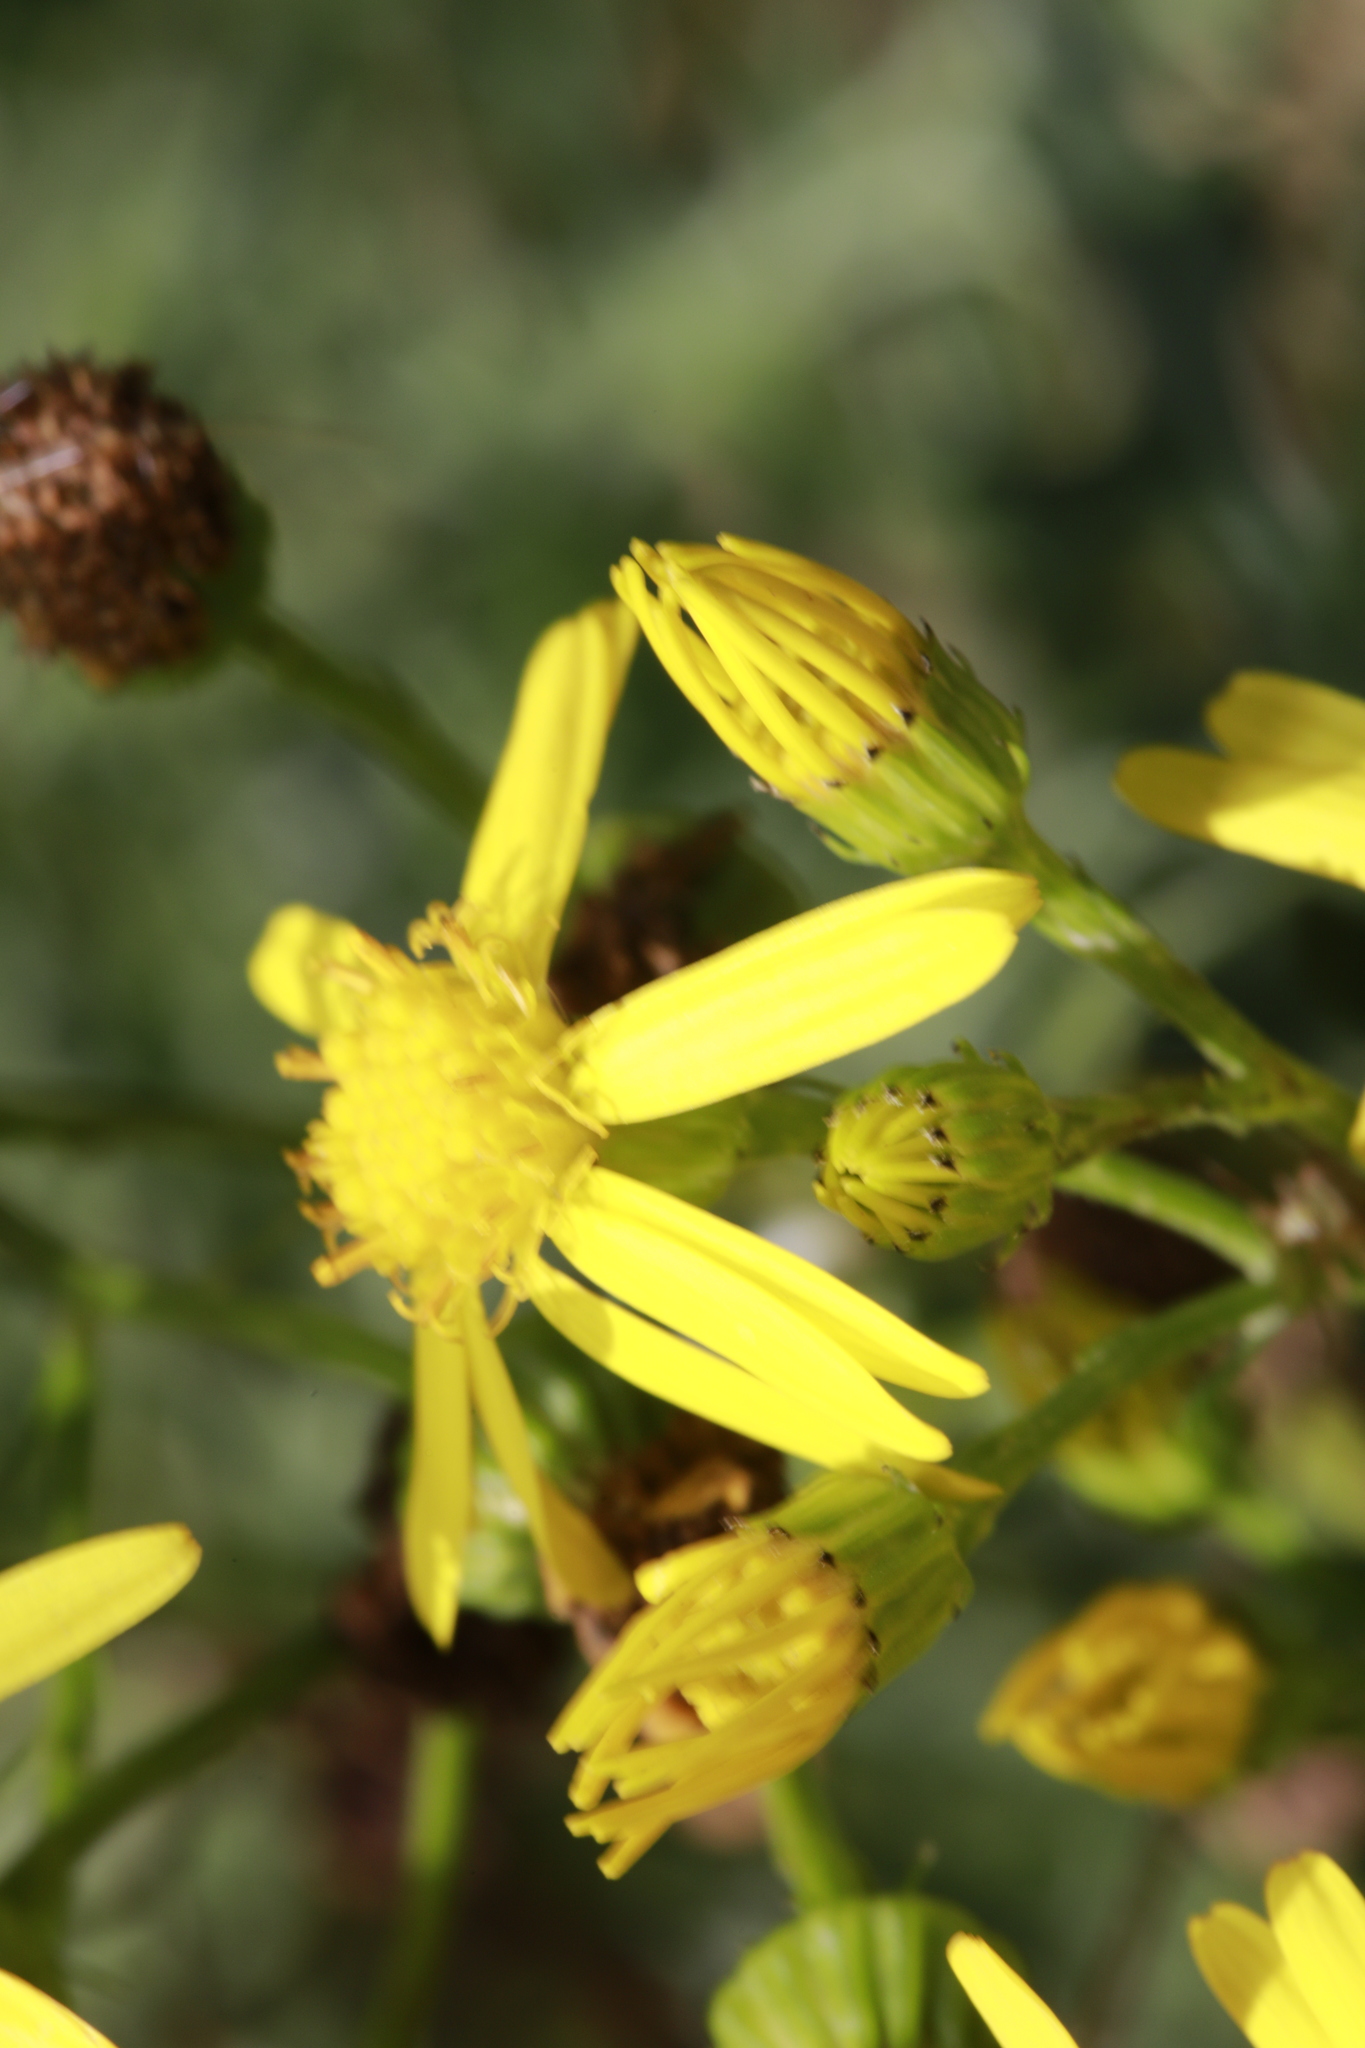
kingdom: Plantae
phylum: Tracheophyta
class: Magnoliopsida
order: Asterales
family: Asteraceae
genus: Jacobaea
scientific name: Jacobaea vulgaris
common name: Stinking willie
